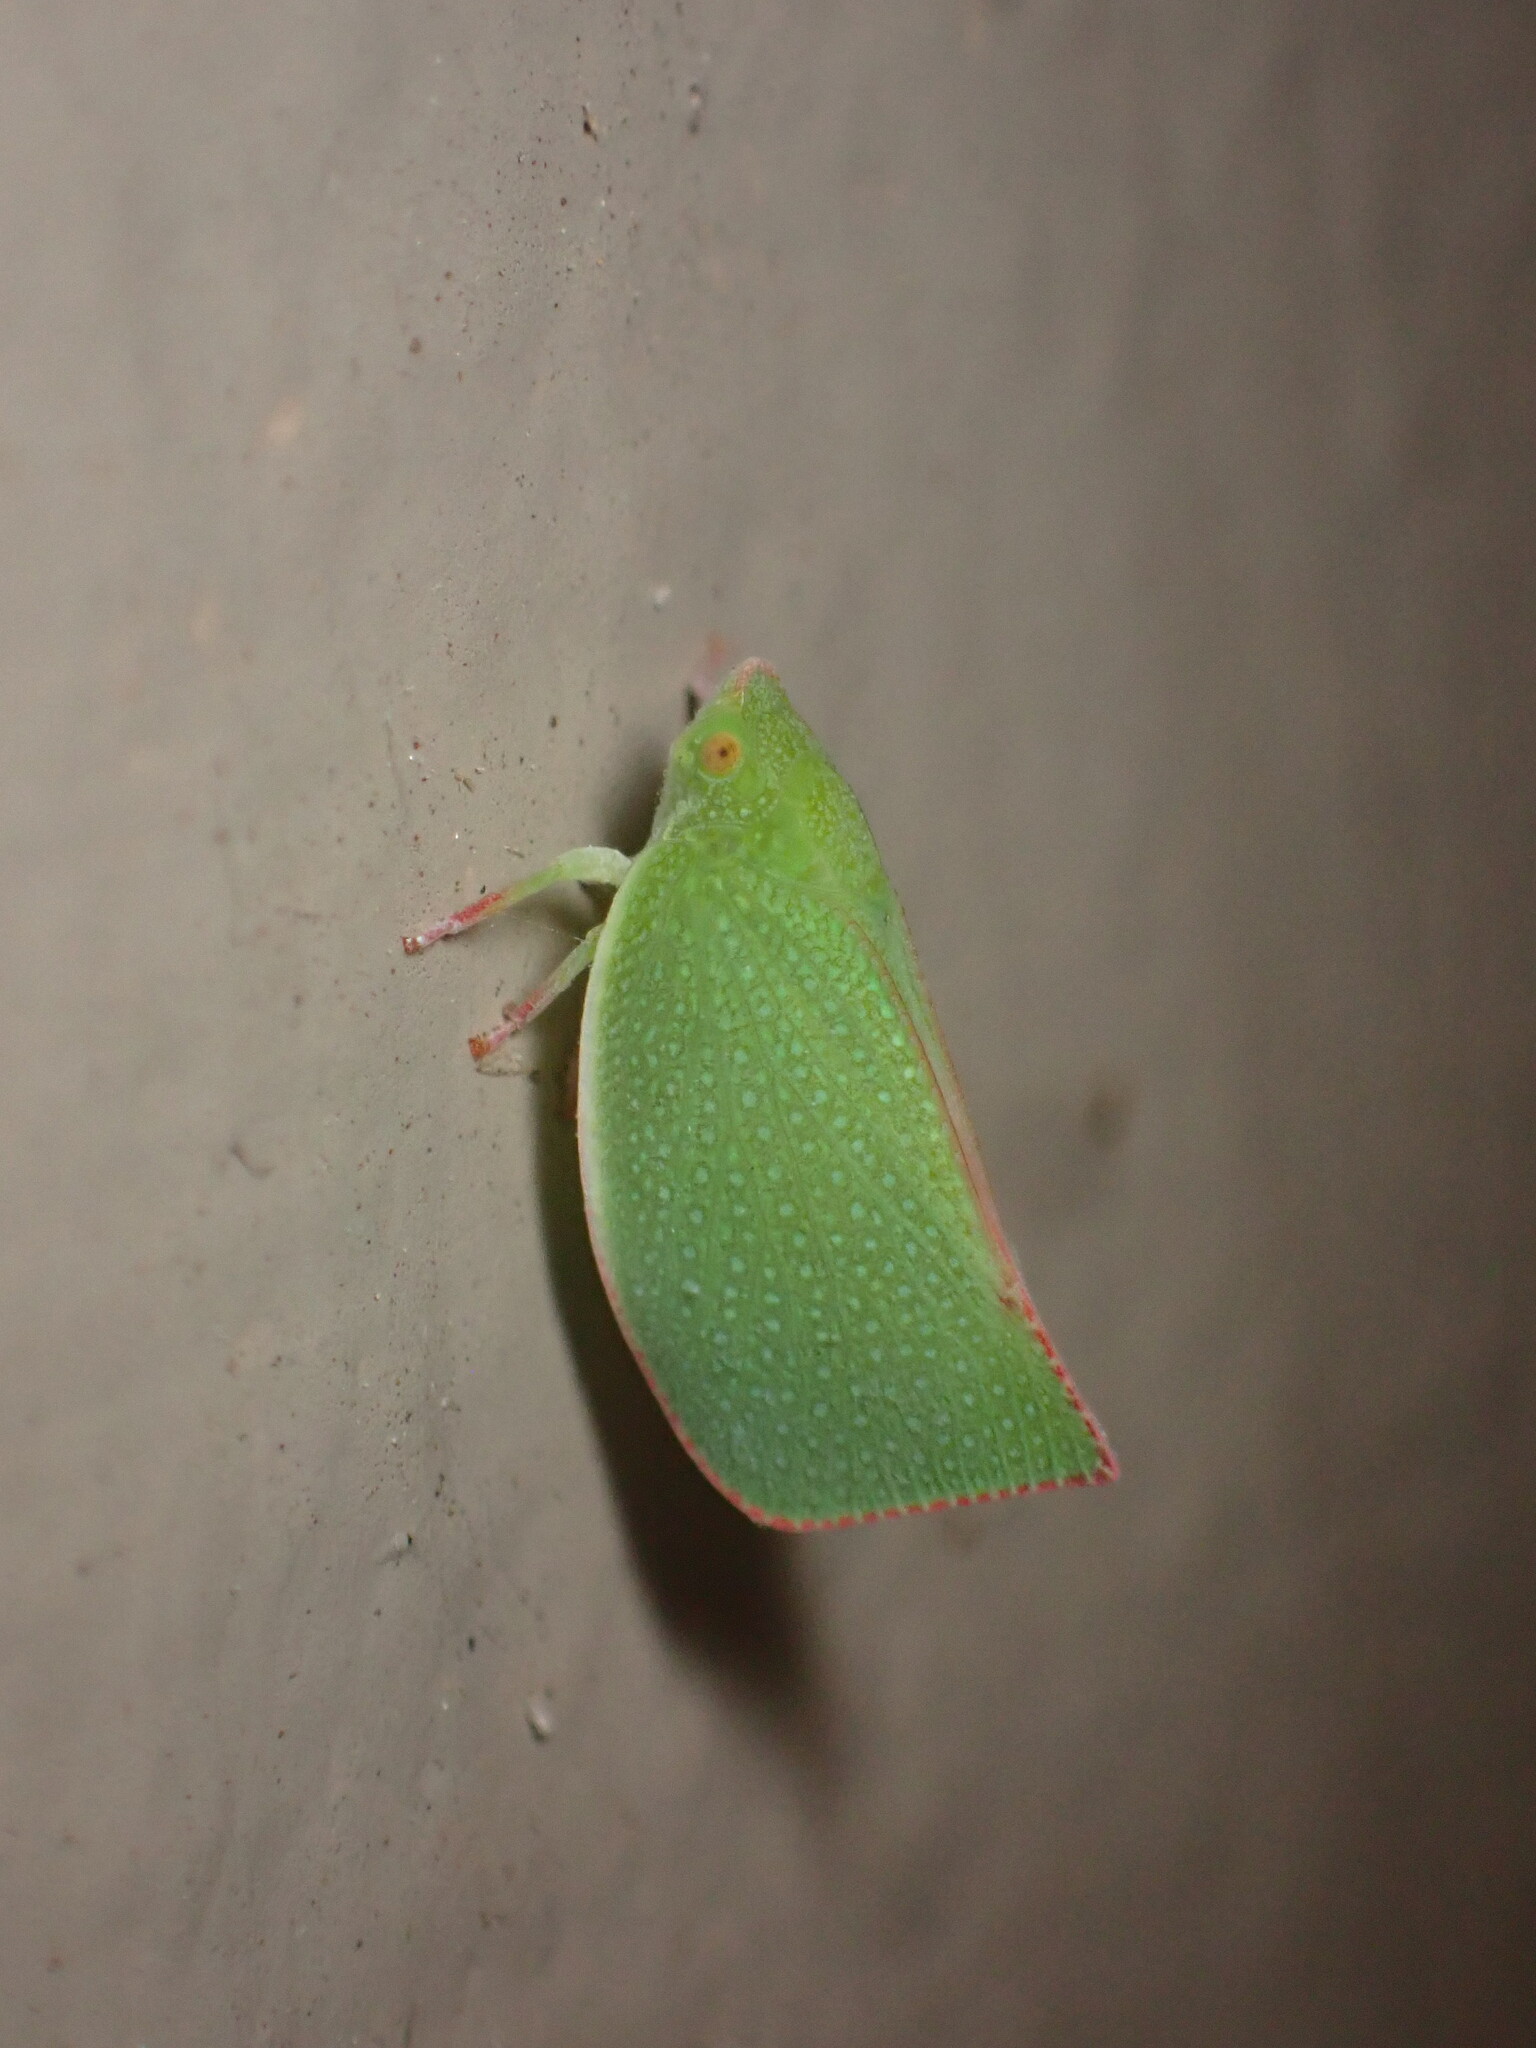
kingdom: Animalia
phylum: Arthropoda
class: Insecta
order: Hemiptera
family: Flatidae
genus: Siphanta
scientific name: Siphanta acuta
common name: Torpedo bug
